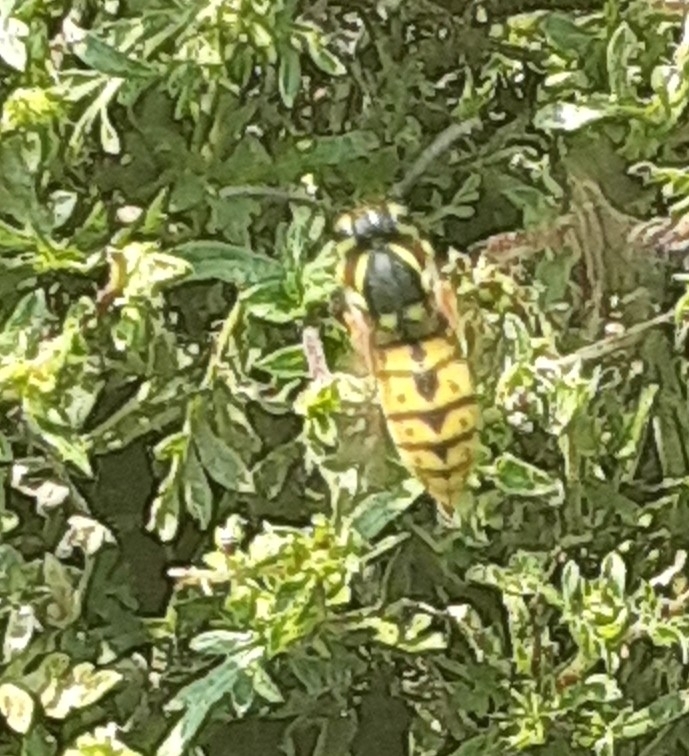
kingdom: Animalia
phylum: Arthropoda
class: Insecta
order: Hymenoptera
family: Vespidae
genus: Vespula
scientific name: Vespula germanica
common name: German wasp
